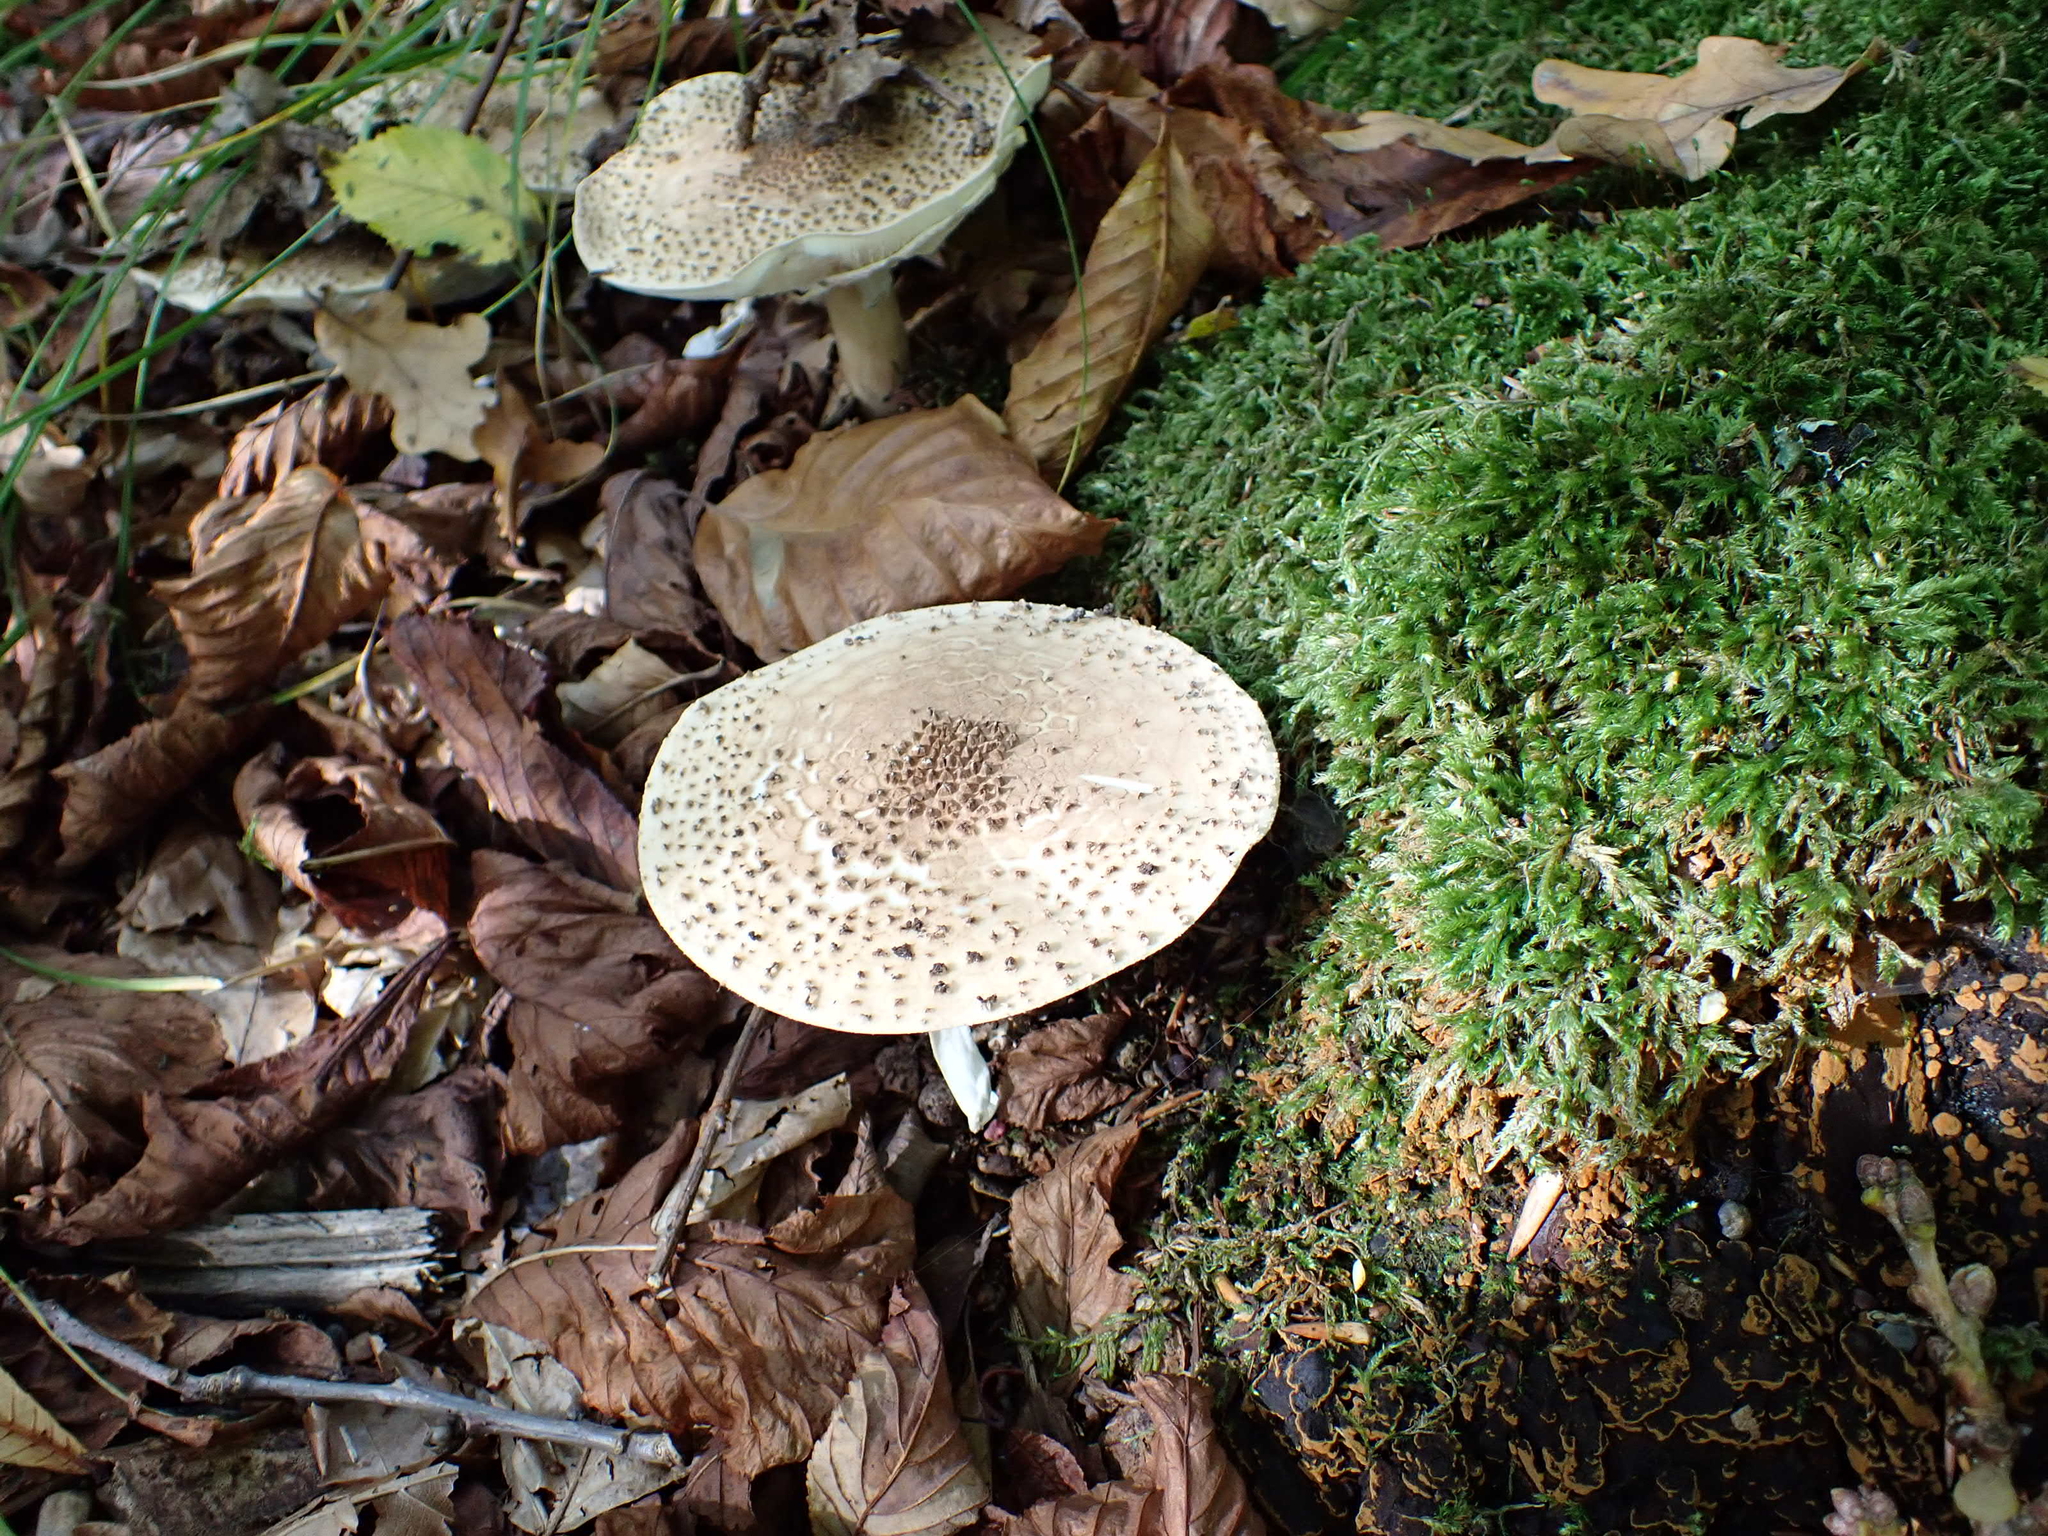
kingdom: Fungi
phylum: Basidiomycota
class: Agaricomycetes
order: Agaricales
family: Agaricaceae
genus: Echinoderma
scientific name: Echinoderma asperum
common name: Freckled dapperling
